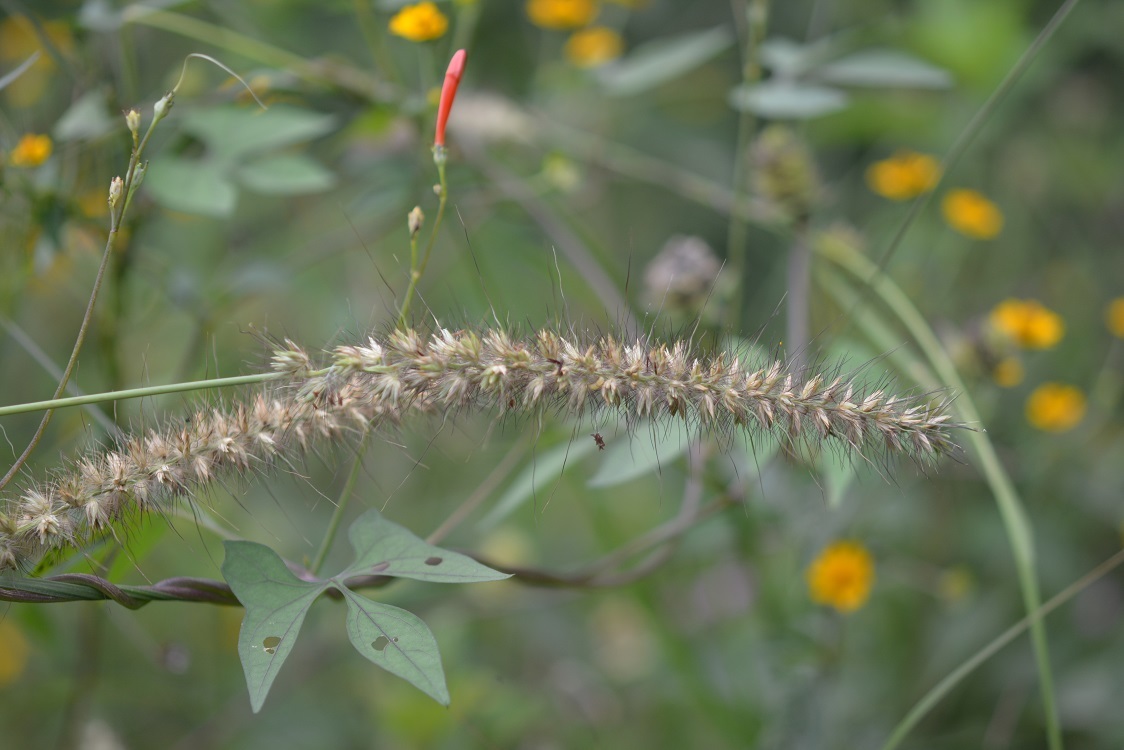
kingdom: Plantae
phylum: Tracheophyta
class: Liliopsida
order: Poales
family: Poaceae
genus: Cenchrus
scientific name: Cenchrus multiflorus
